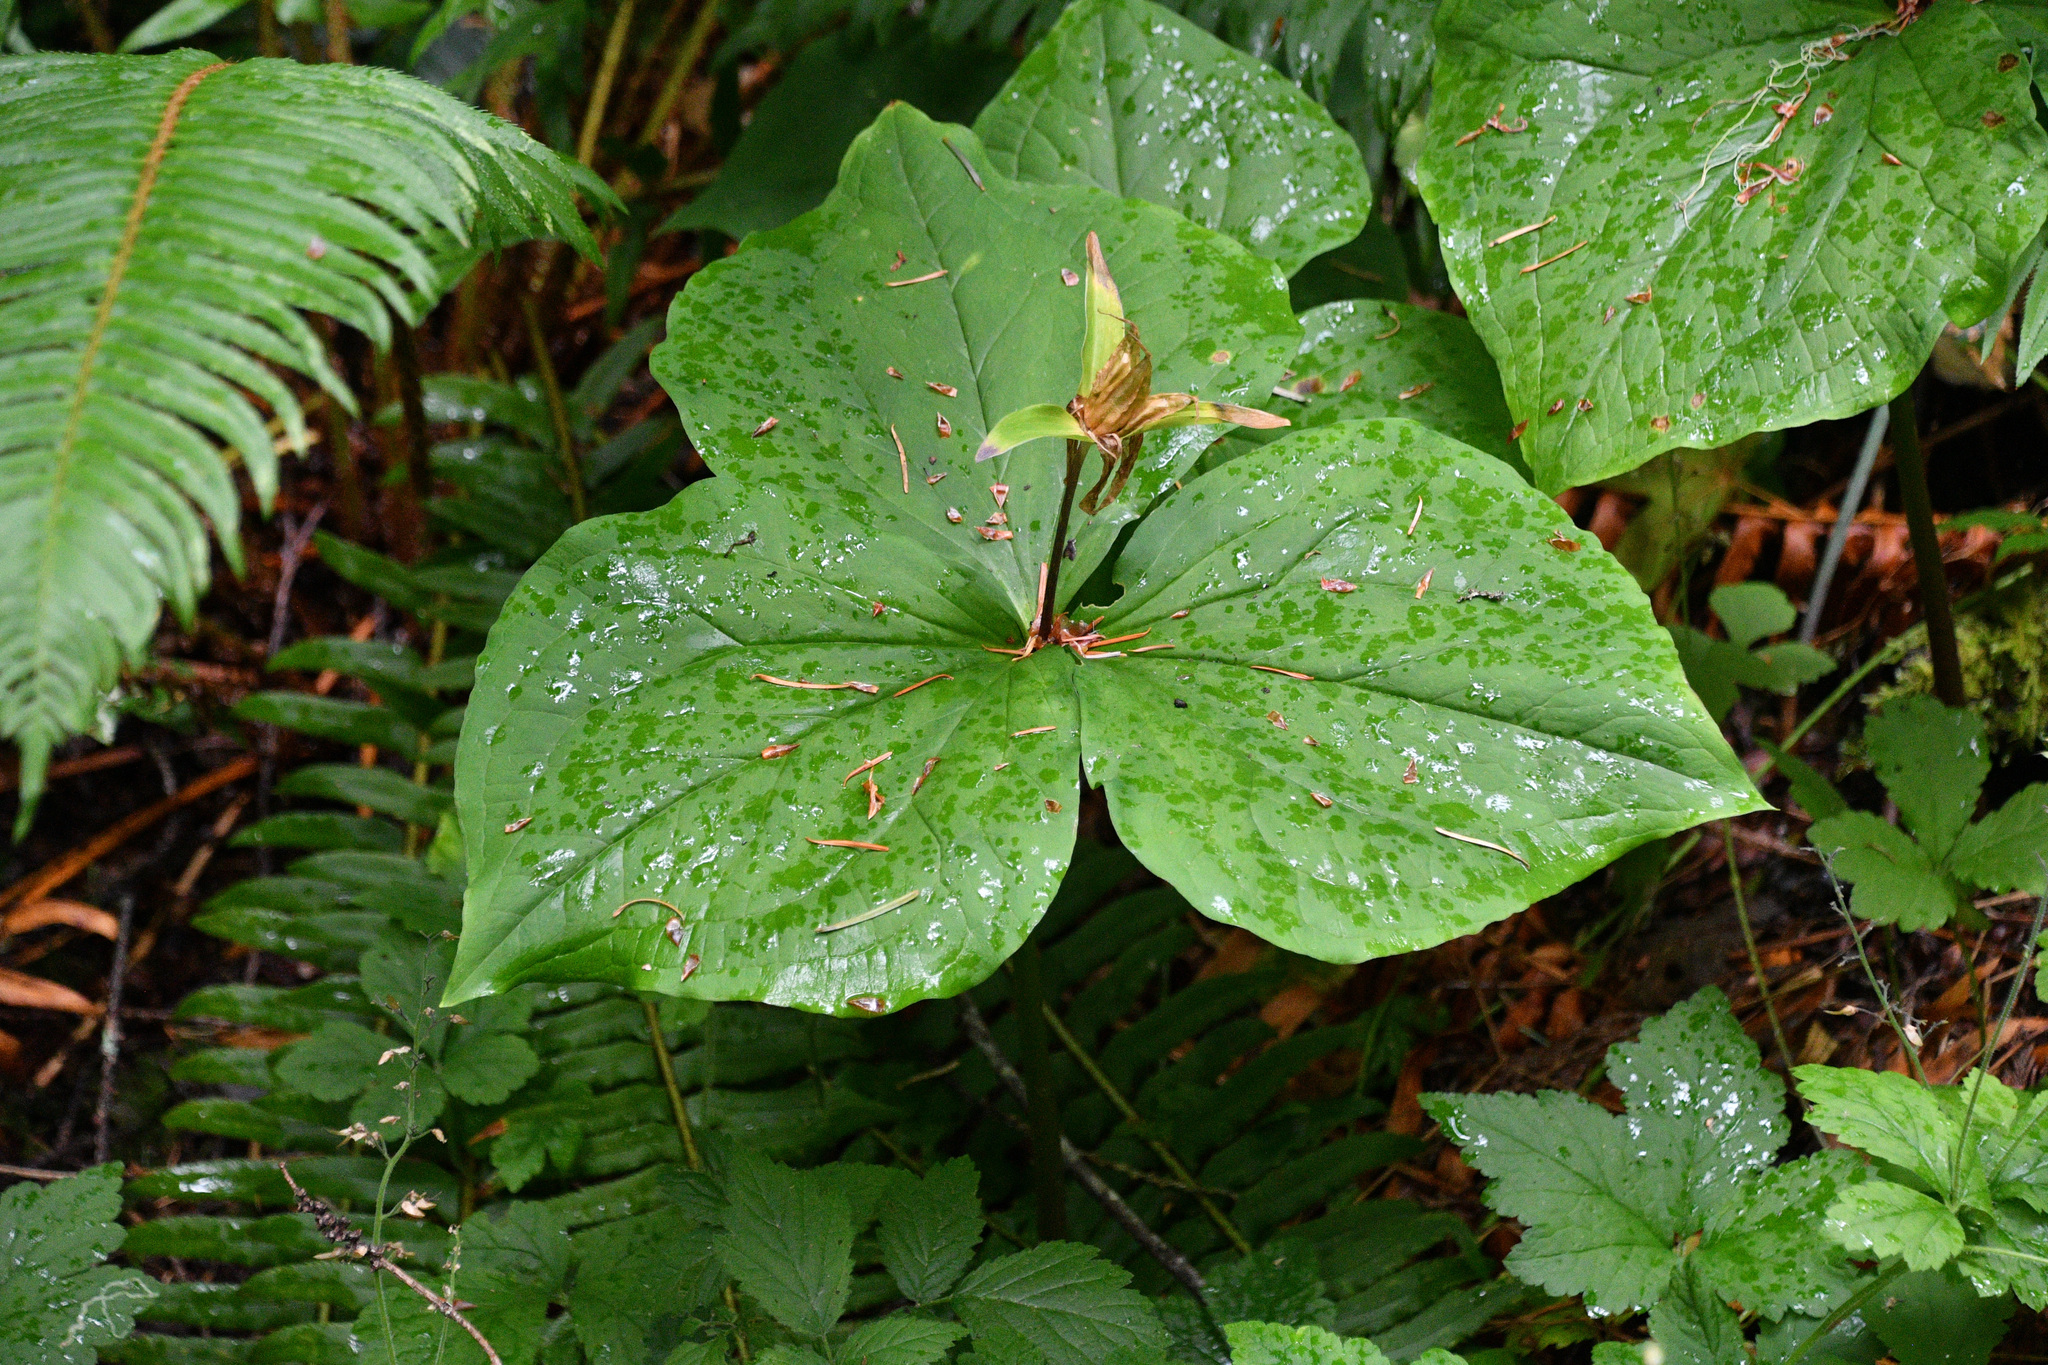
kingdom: Plantae
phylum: Tracheophyta
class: Liliopsida
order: Liliales
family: Melanthiaceae
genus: Trillium
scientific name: Trillium ovatum
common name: Pacific trillium
